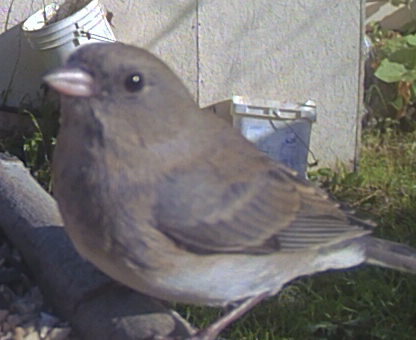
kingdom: Animalia
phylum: Chordata
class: Aves
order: Passeriformes
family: Passerellidae
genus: Junco
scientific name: Junco hyemalis
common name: Dark-eyed junco
